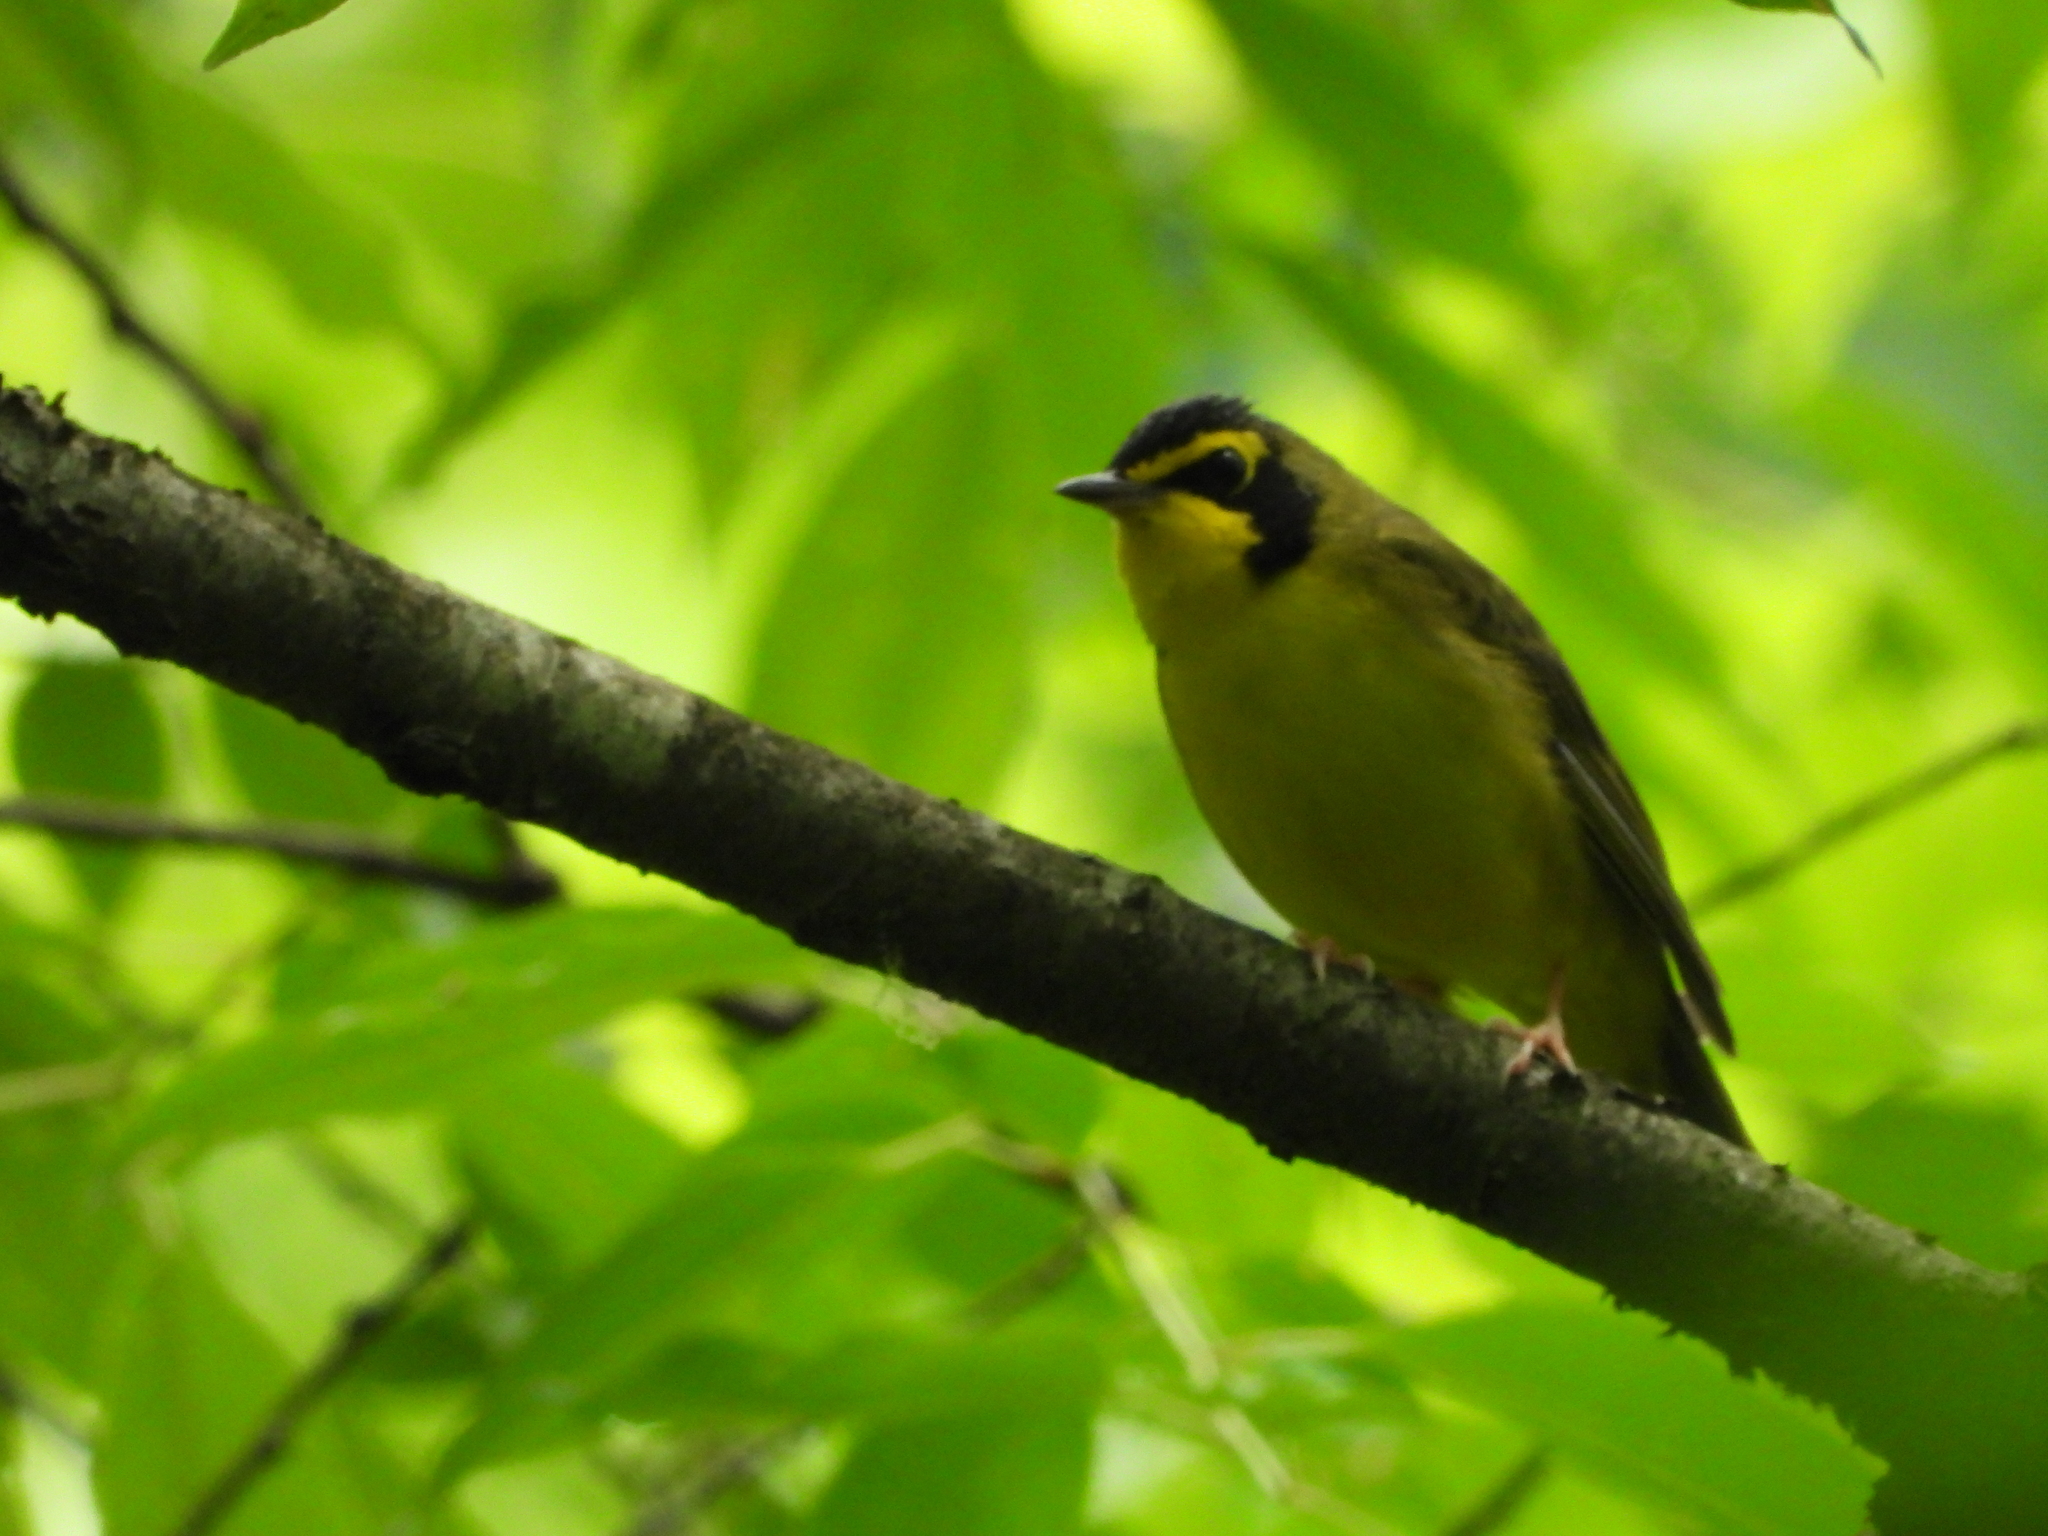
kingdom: Animalia
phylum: Chordata
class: Aves
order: Passeriformes
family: Parulidae
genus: Geothlypis
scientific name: Geothlypis formosa
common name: Kentucky warbler
